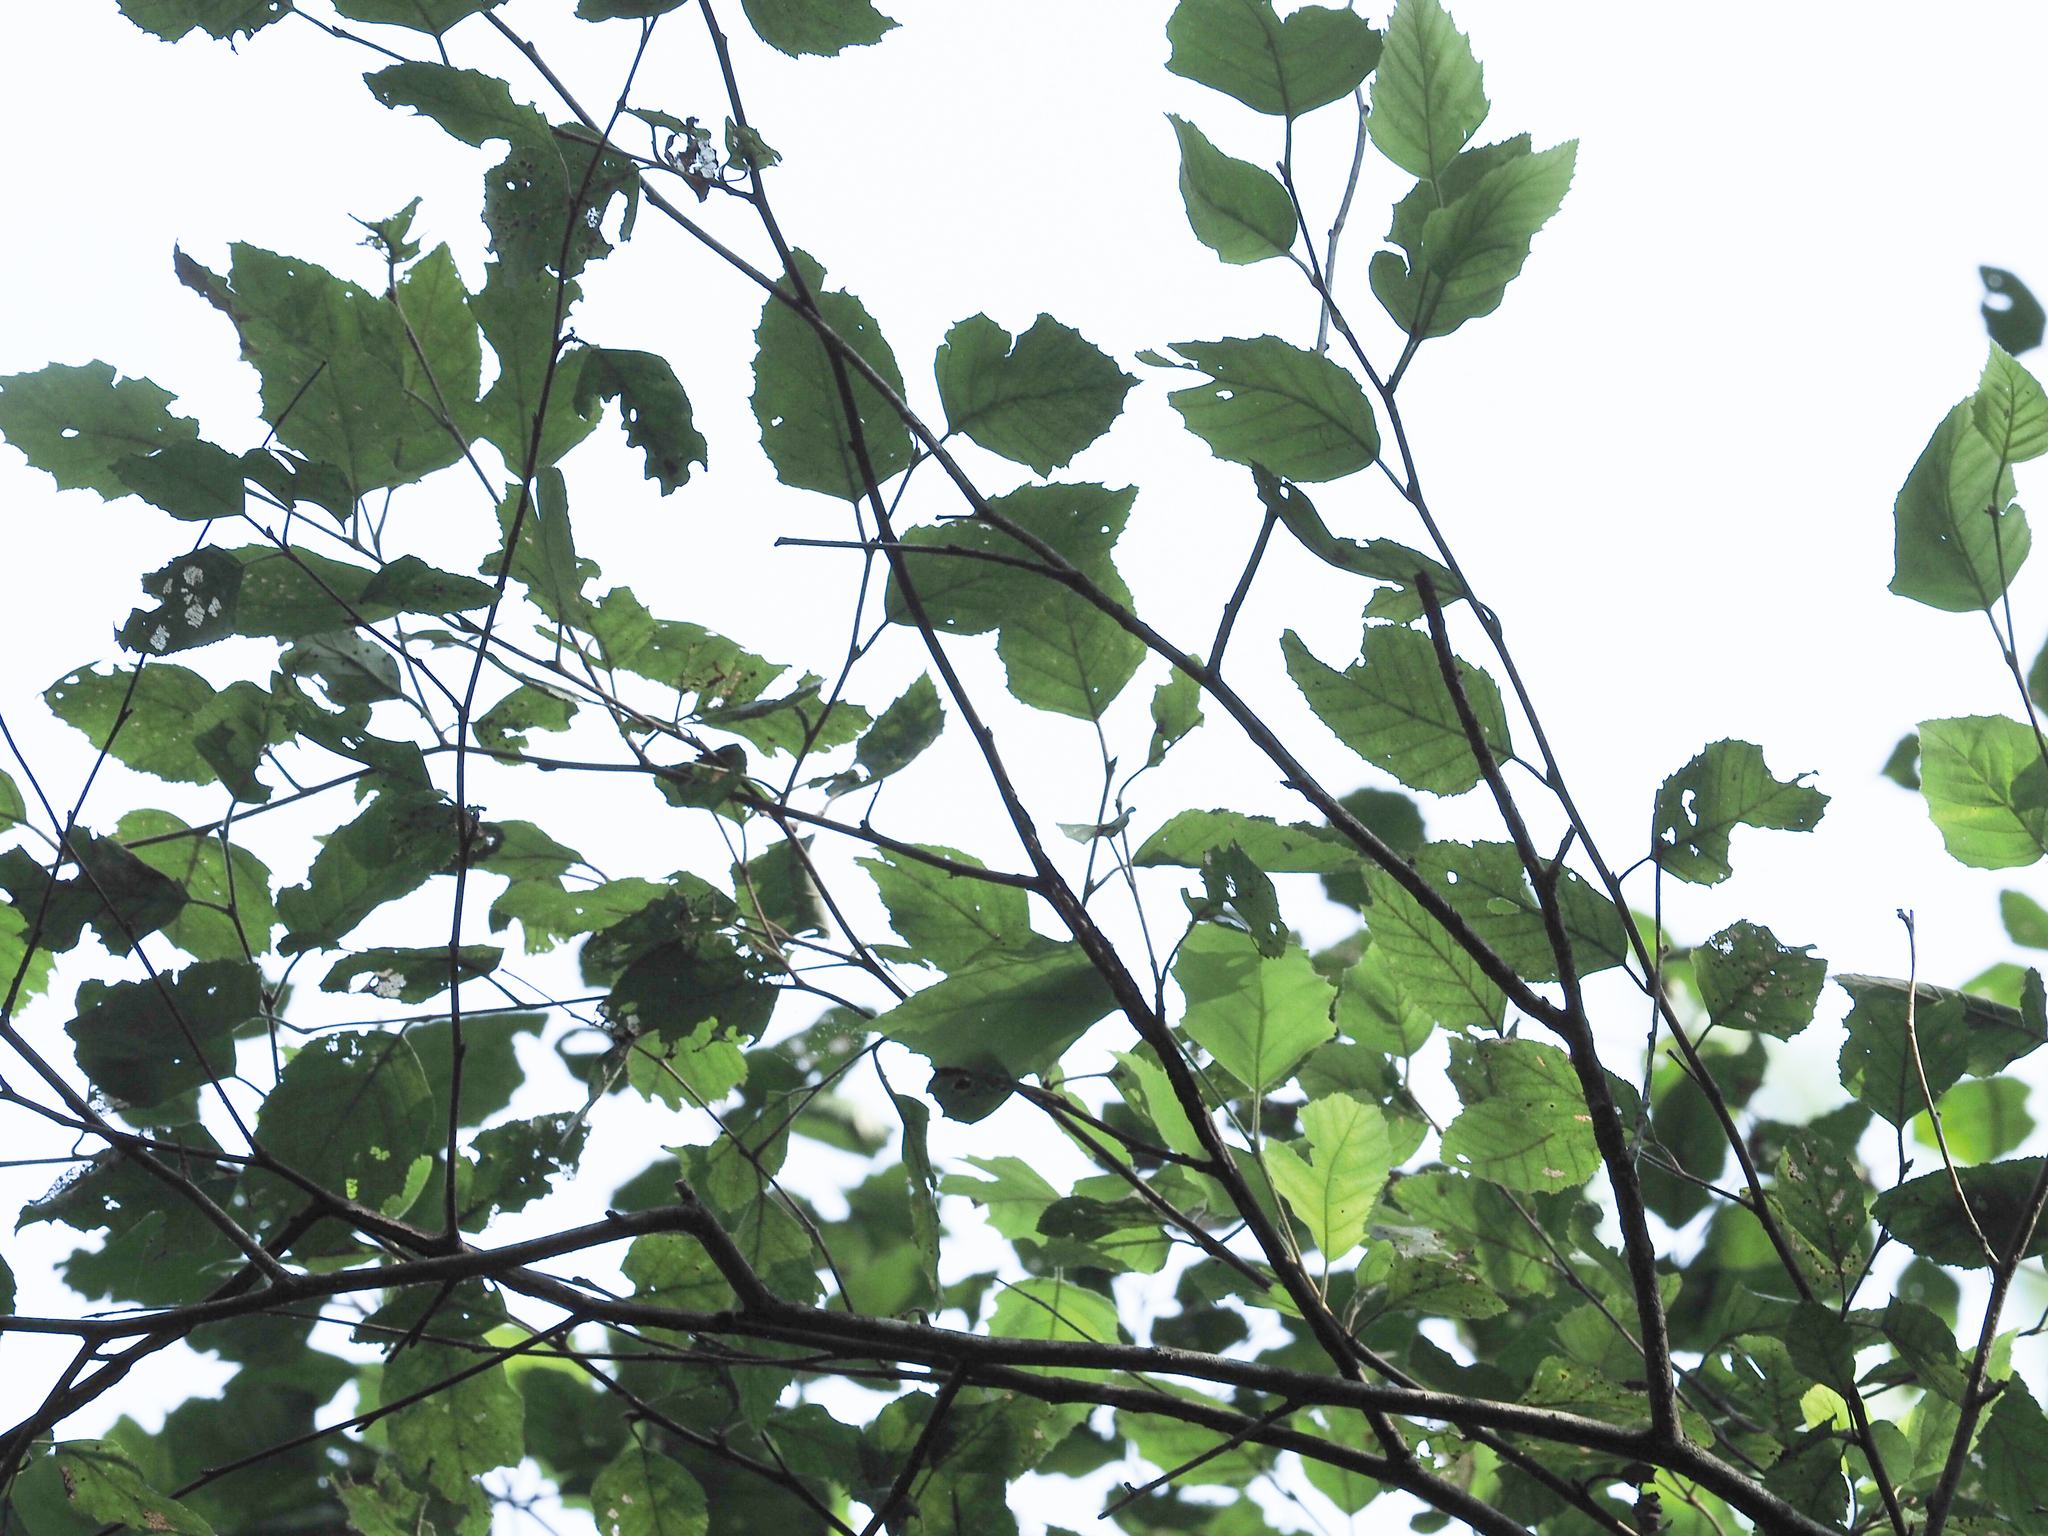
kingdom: Plantae
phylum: Tracheophyta
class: Magnoliopsida
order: Fagales
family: Betulaceae
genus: Betula
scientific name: Betula nigra
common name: Black birch
